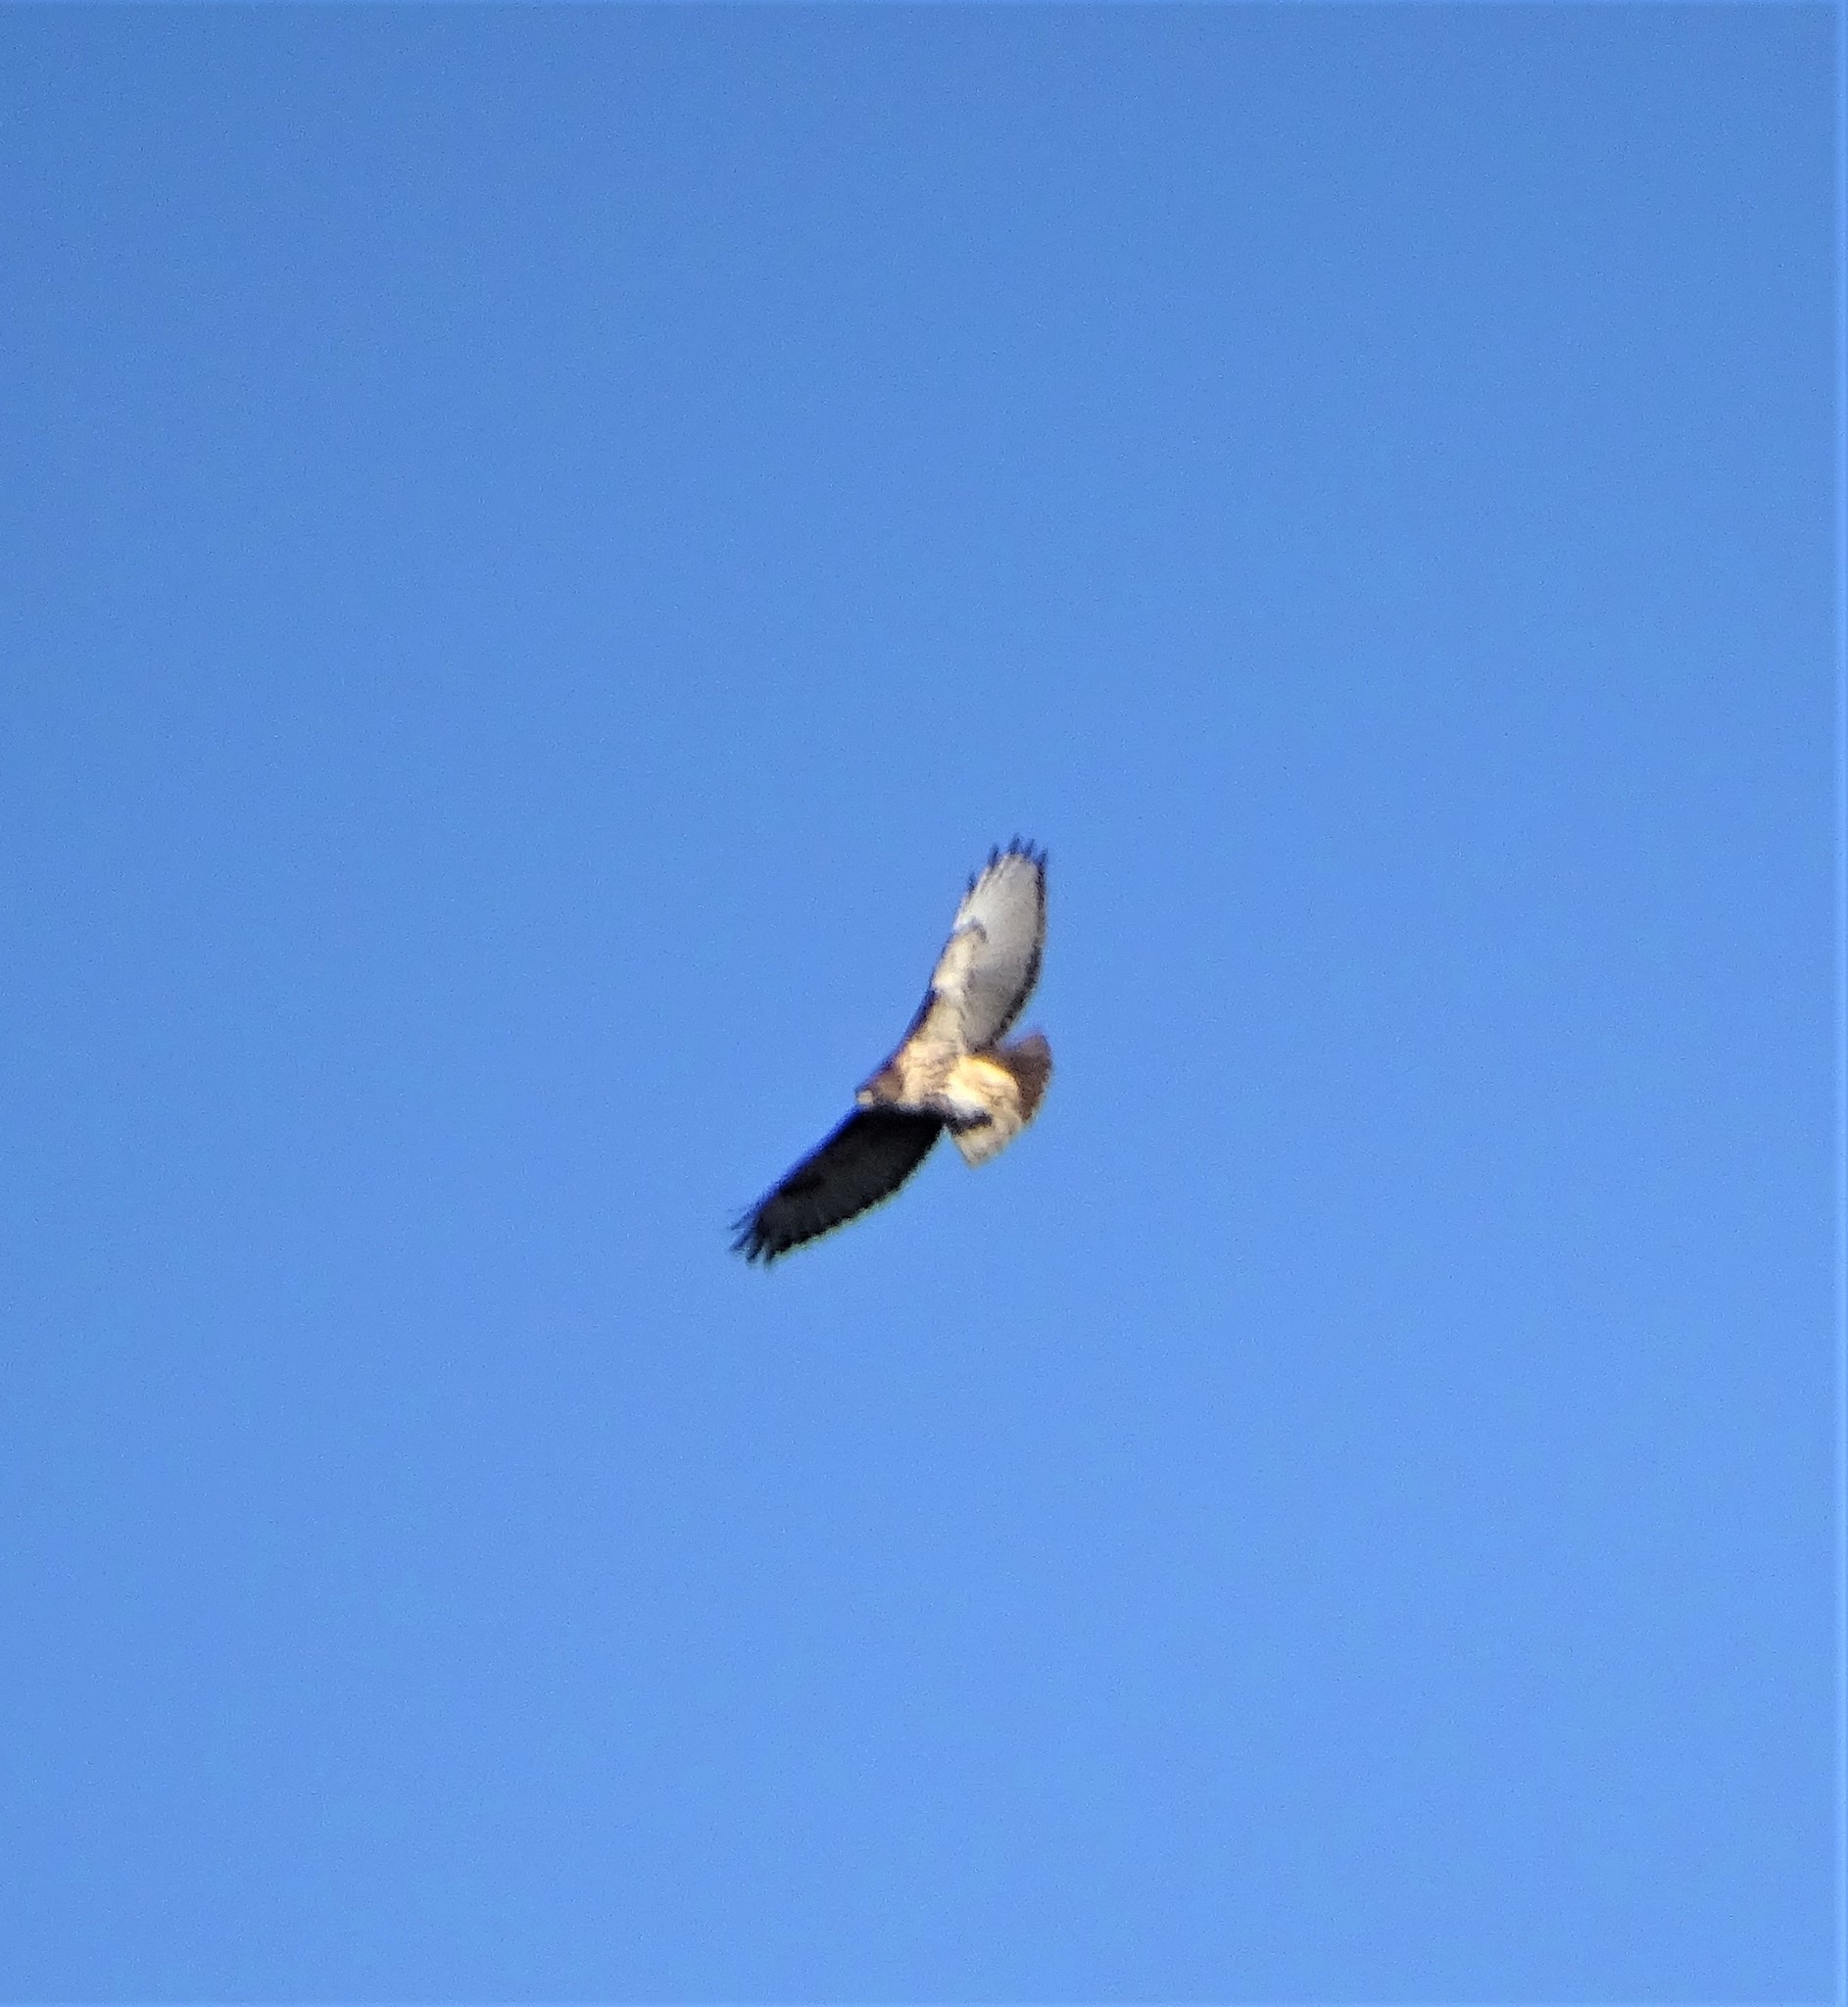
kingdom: Animalia
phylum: Chordata
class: Aves
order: Accipitriformes
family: Accipitridae
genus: Buteo
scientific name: Buteo jamaicensis
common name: Red-tailed hawk
